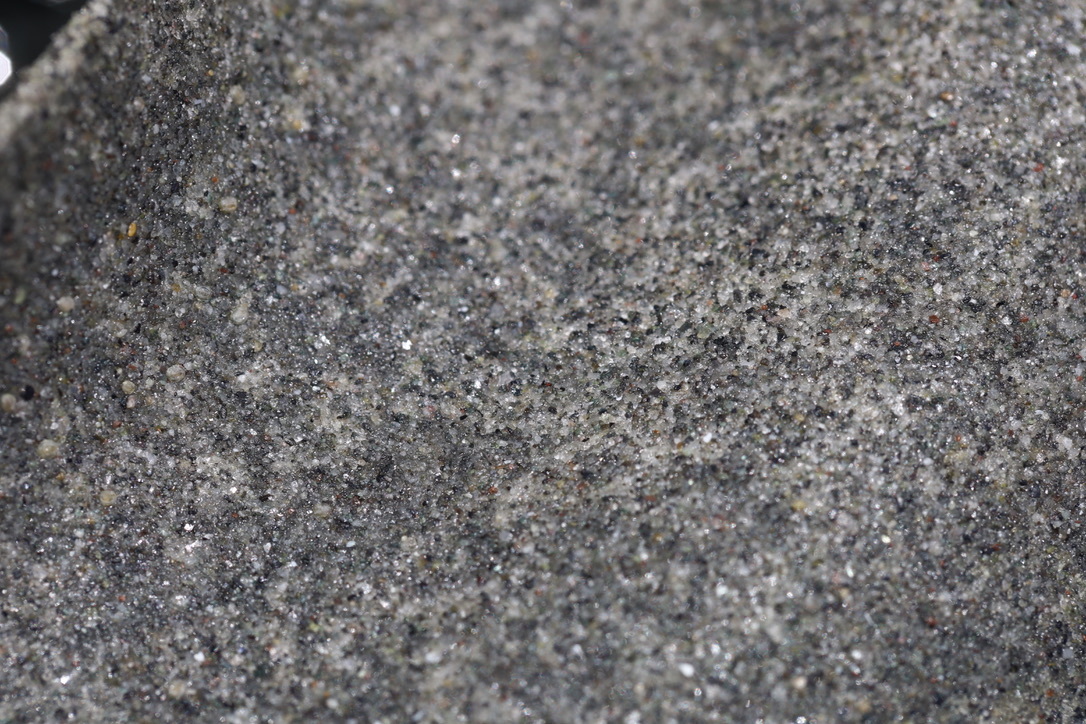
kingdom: Animalia
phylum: Mollusca
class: Gastropoda
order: Littorinimorpha
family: Naticidae
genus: Neverita
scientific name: Neverita lewisii
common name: Lewis' moonsnail
